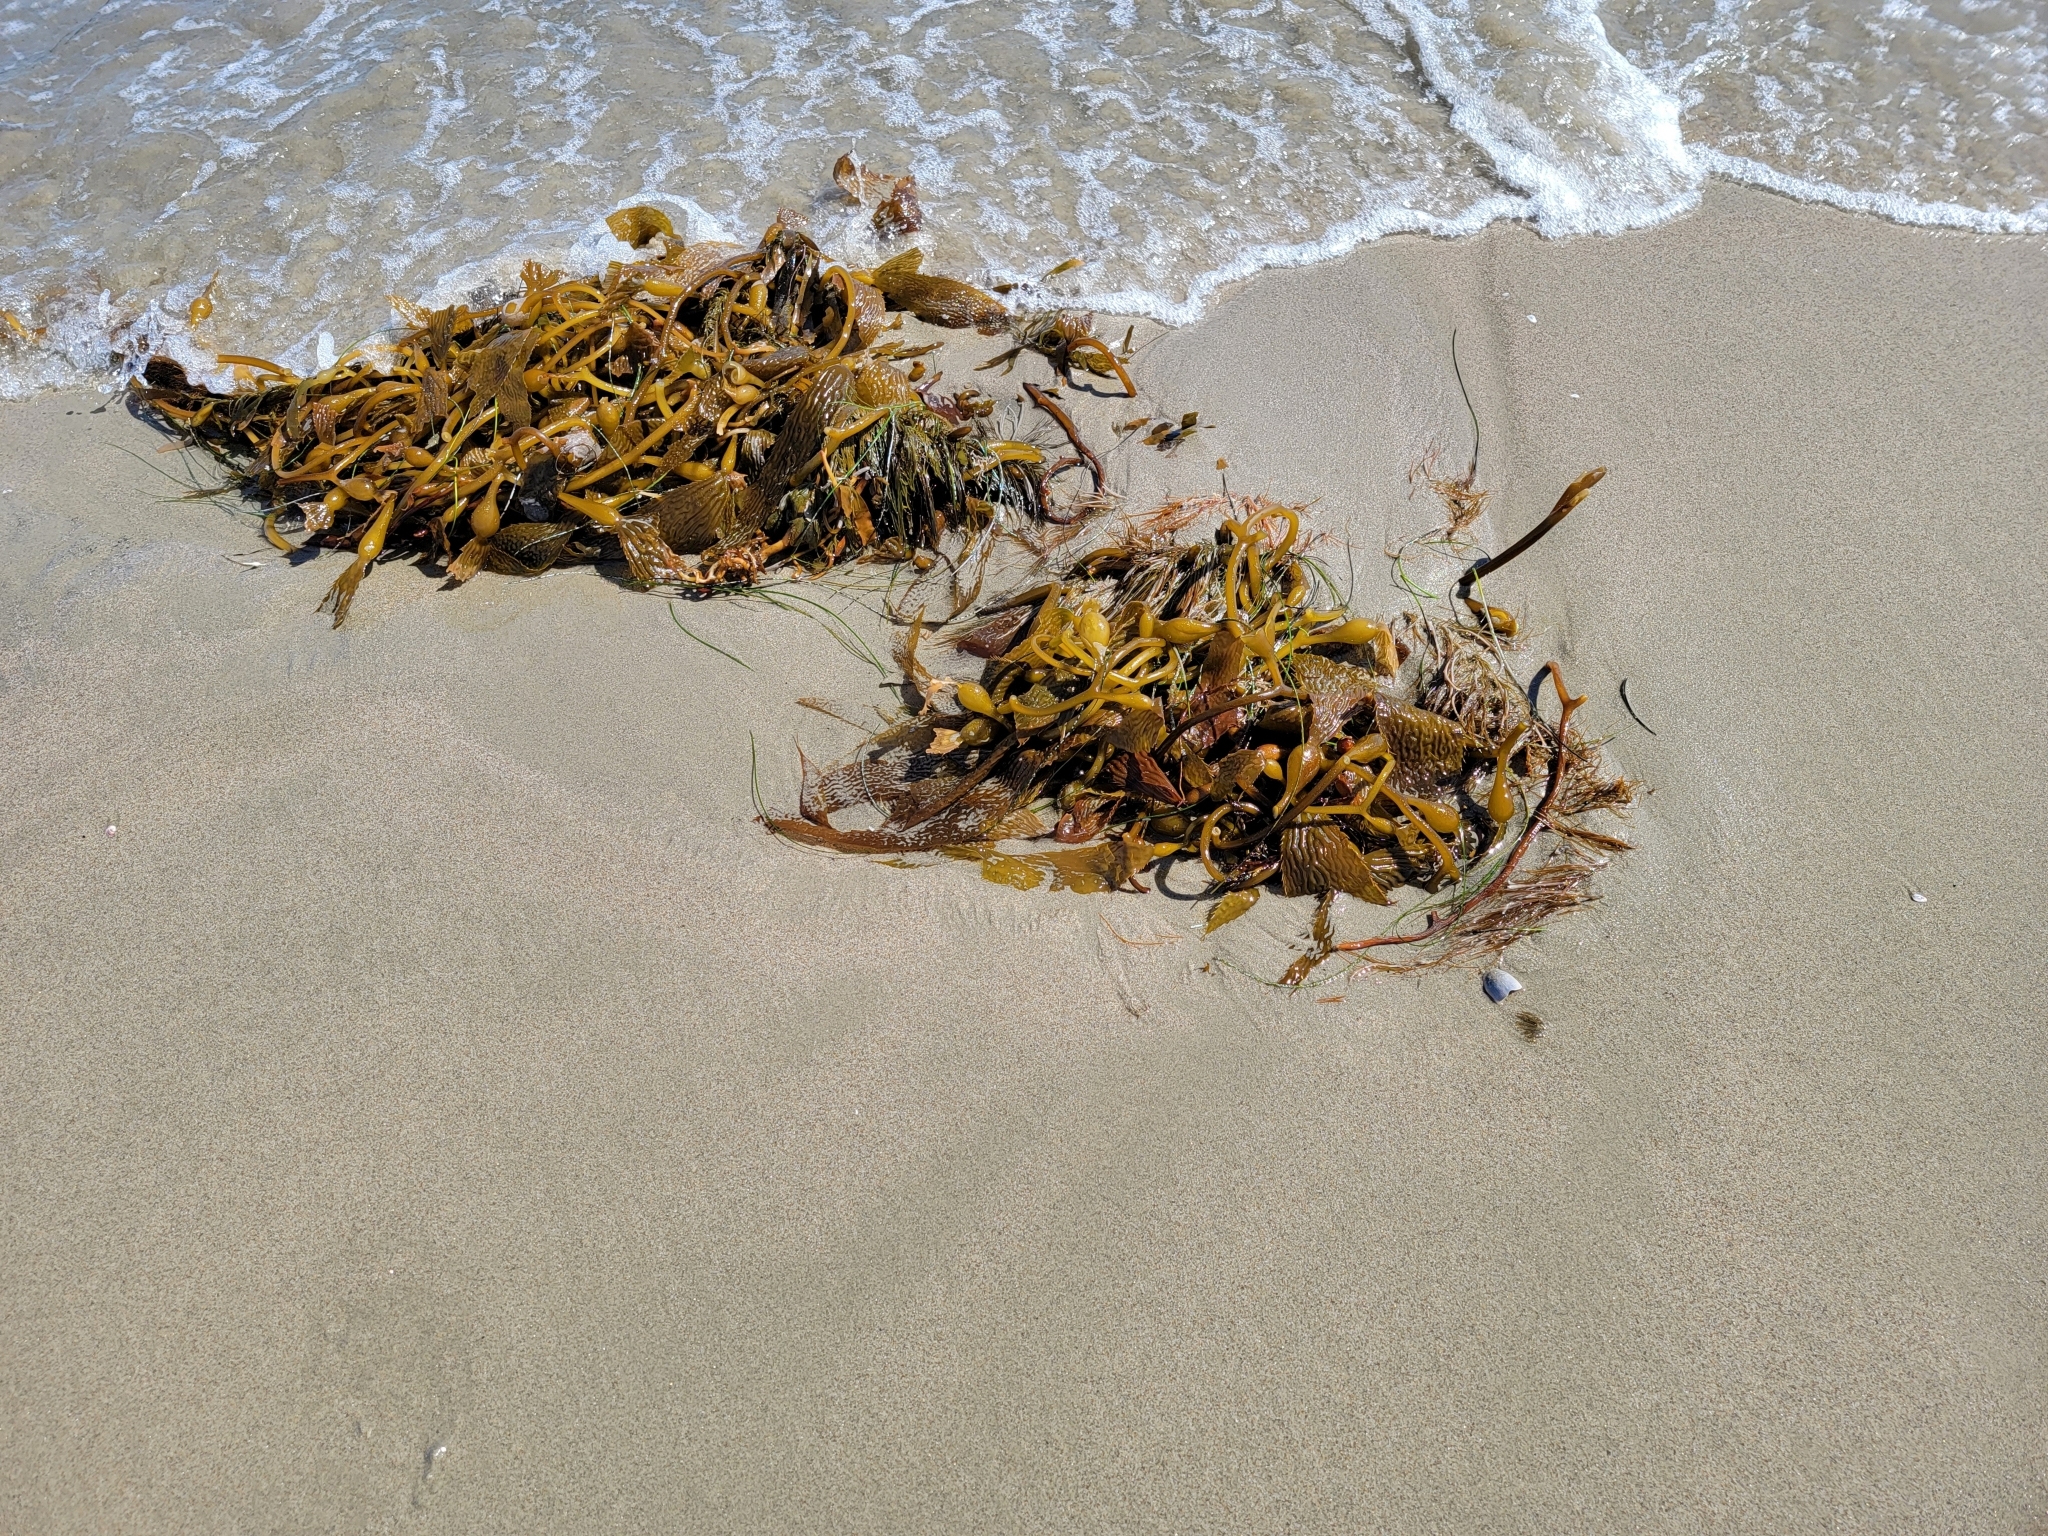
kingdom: Chromista
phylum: Ochrophyta
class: Phaeophyceae
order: Laminariales
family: Laminariaceae
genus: Macrocystis
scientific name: Macrocystis pyrifera
